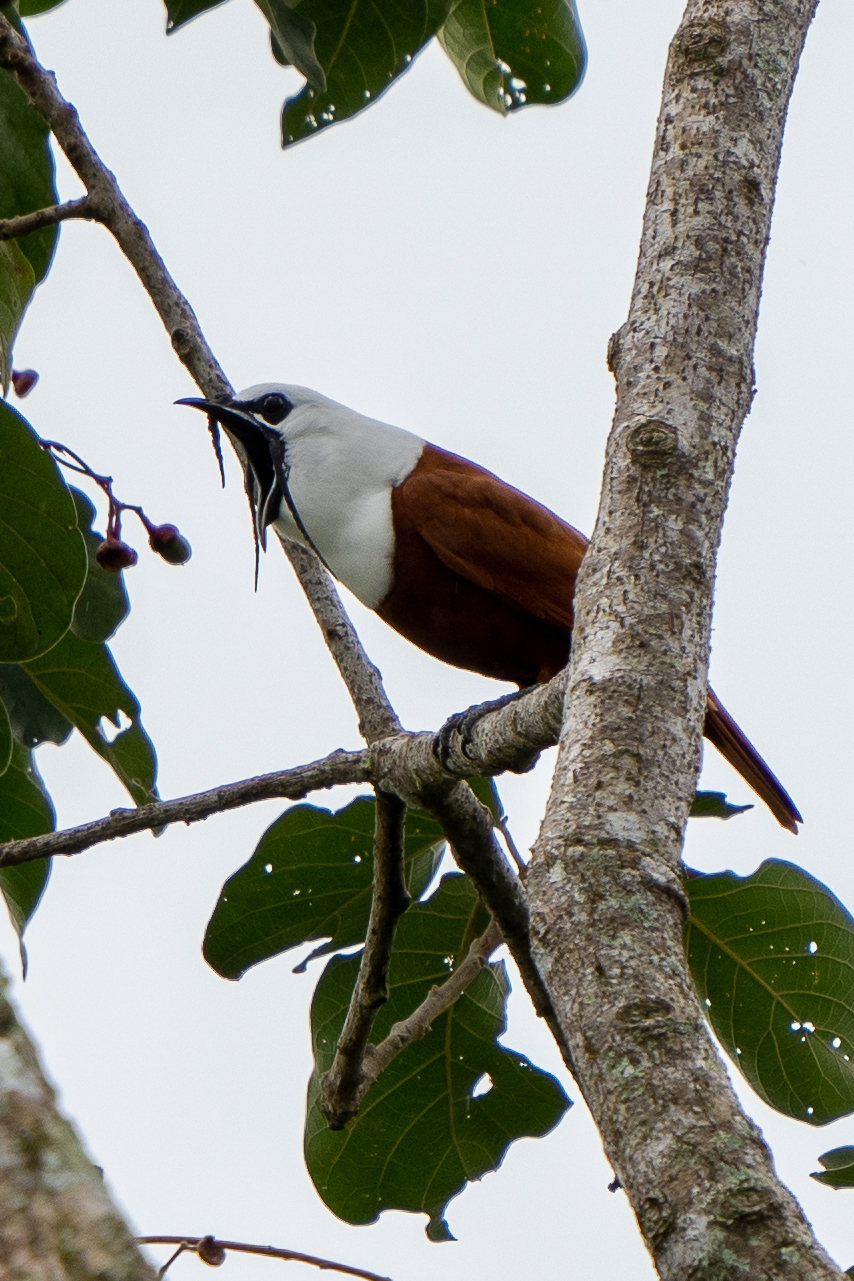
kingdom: Animalia
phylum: Chordata
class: Aves
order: Passeriformes
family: Cotingidae
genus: Procnias
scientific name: Procnias tricarunculatus
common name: Three-wattled bellbird
